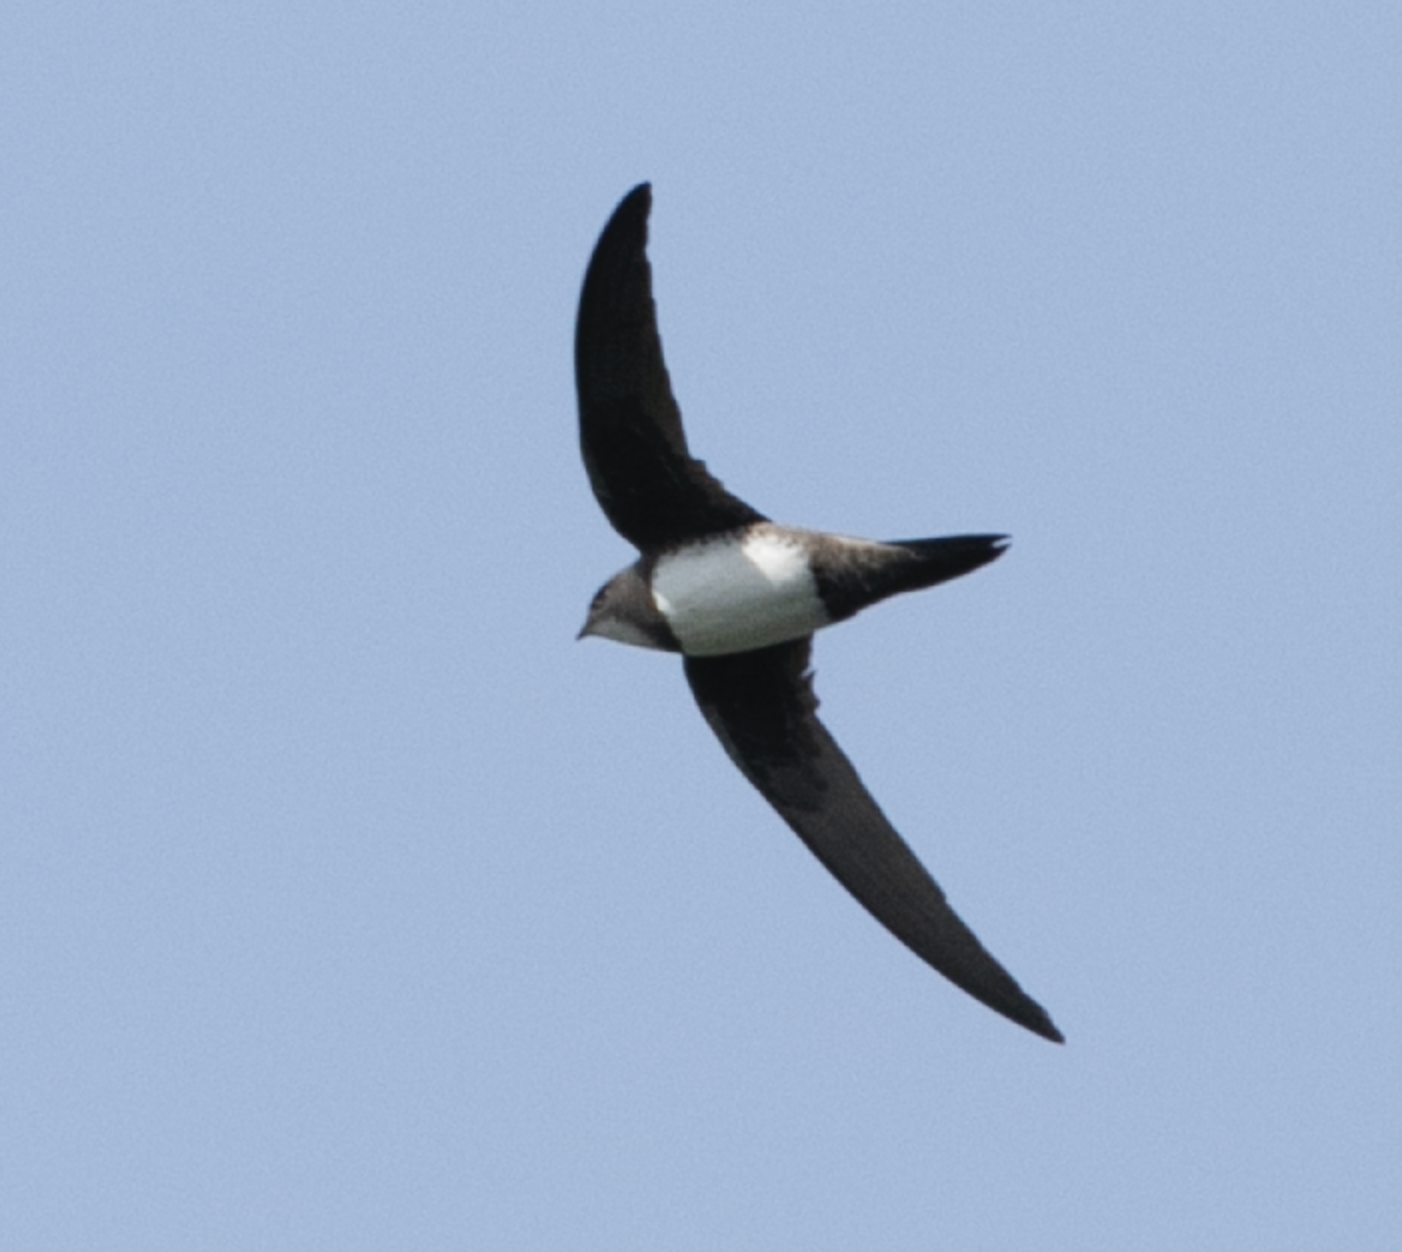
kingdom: Animalia
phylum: Chordata
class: Aves
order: Apodiformes
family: Apodidae
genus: Tachymarptis
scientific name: Tachymarptis melba
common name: Alpine swift
